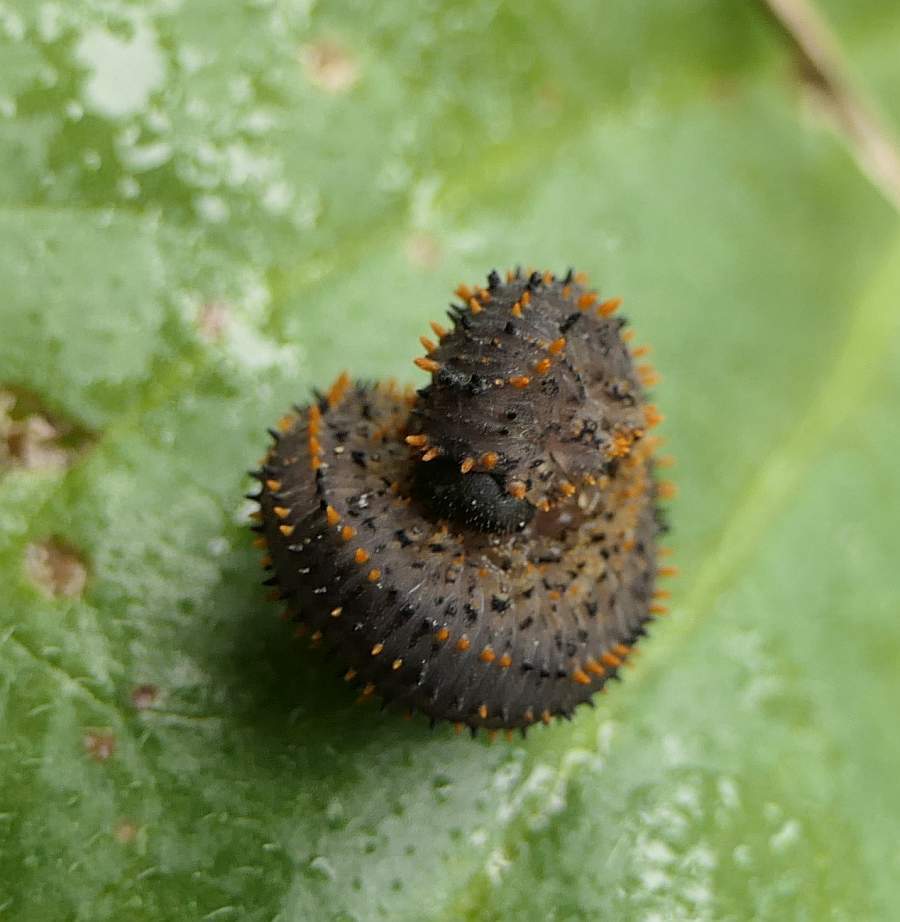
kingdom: Animalia
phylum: Arthropoda
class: Insecta
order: Hymenoptera
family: Tenthredinidae
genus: Lagium
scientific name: Lagium atroviolaceum
